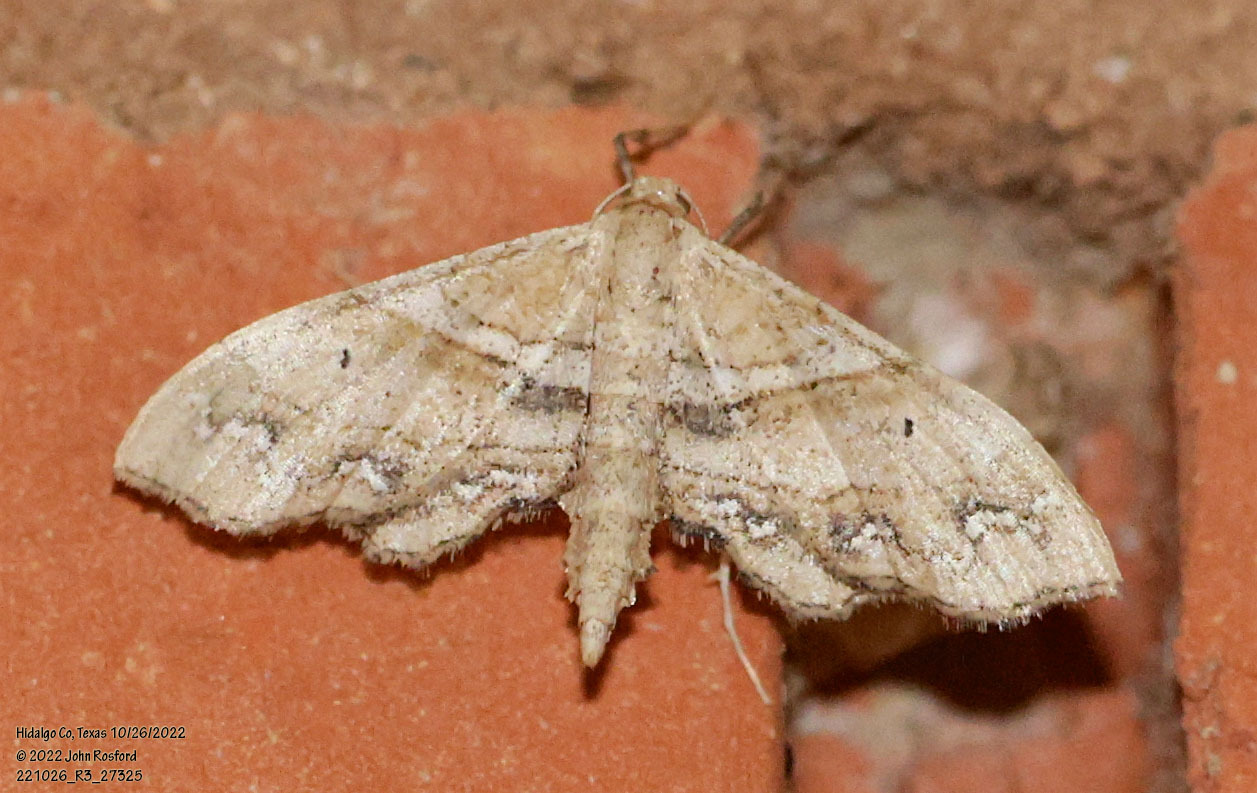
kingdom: Animalia
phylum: Arthropoda
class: Insecta
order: Lepidoptera
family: Geometridae
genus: Odontoptila
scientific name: Odontoptila obrimo
